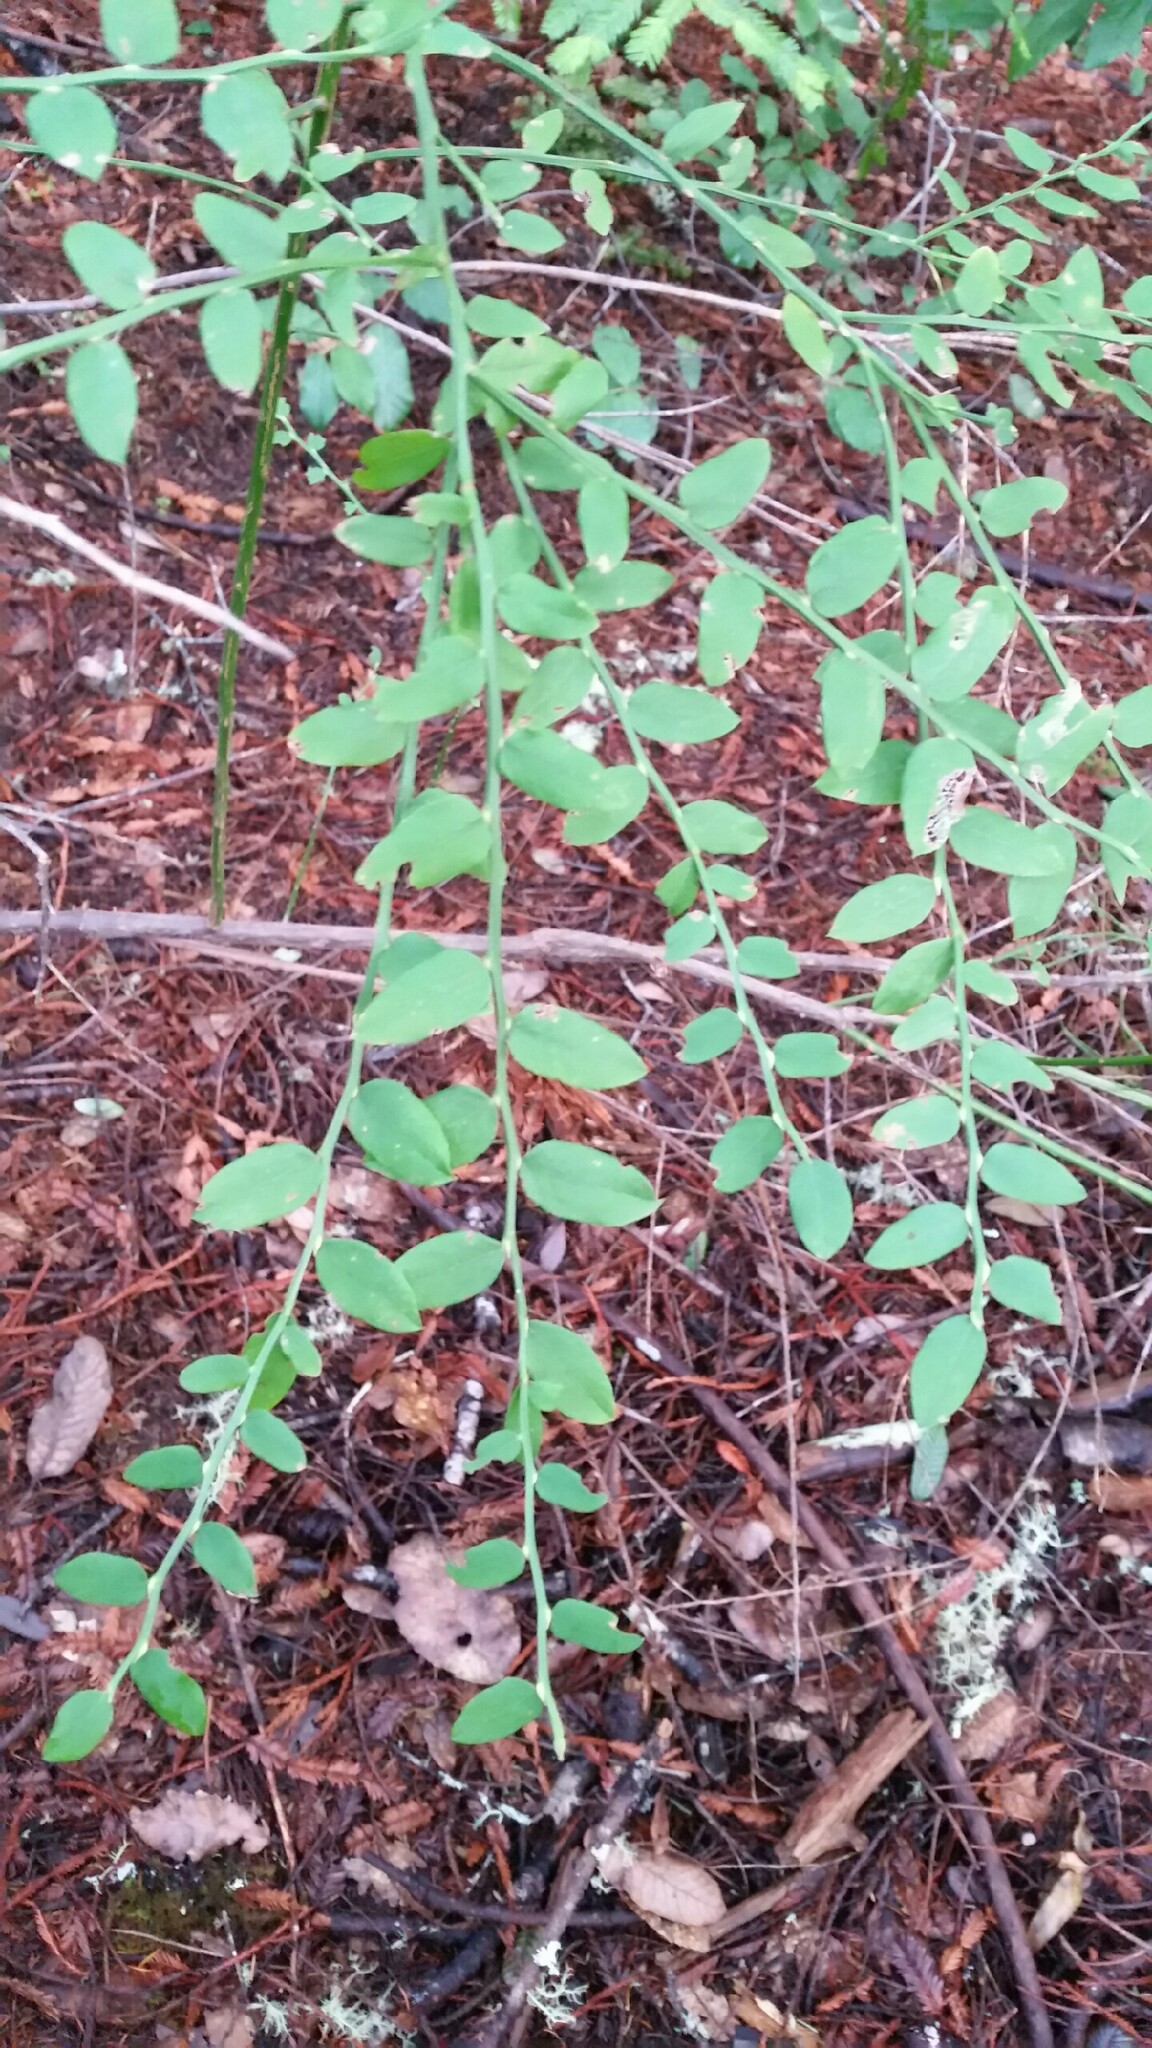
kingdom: Plantae
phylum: Tracheophyta
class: Magnoliopsida
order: Ericales
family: Ericaceae
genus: Vaccinium
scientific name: Vaccinium parvifolium
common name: Red-huckleberry
